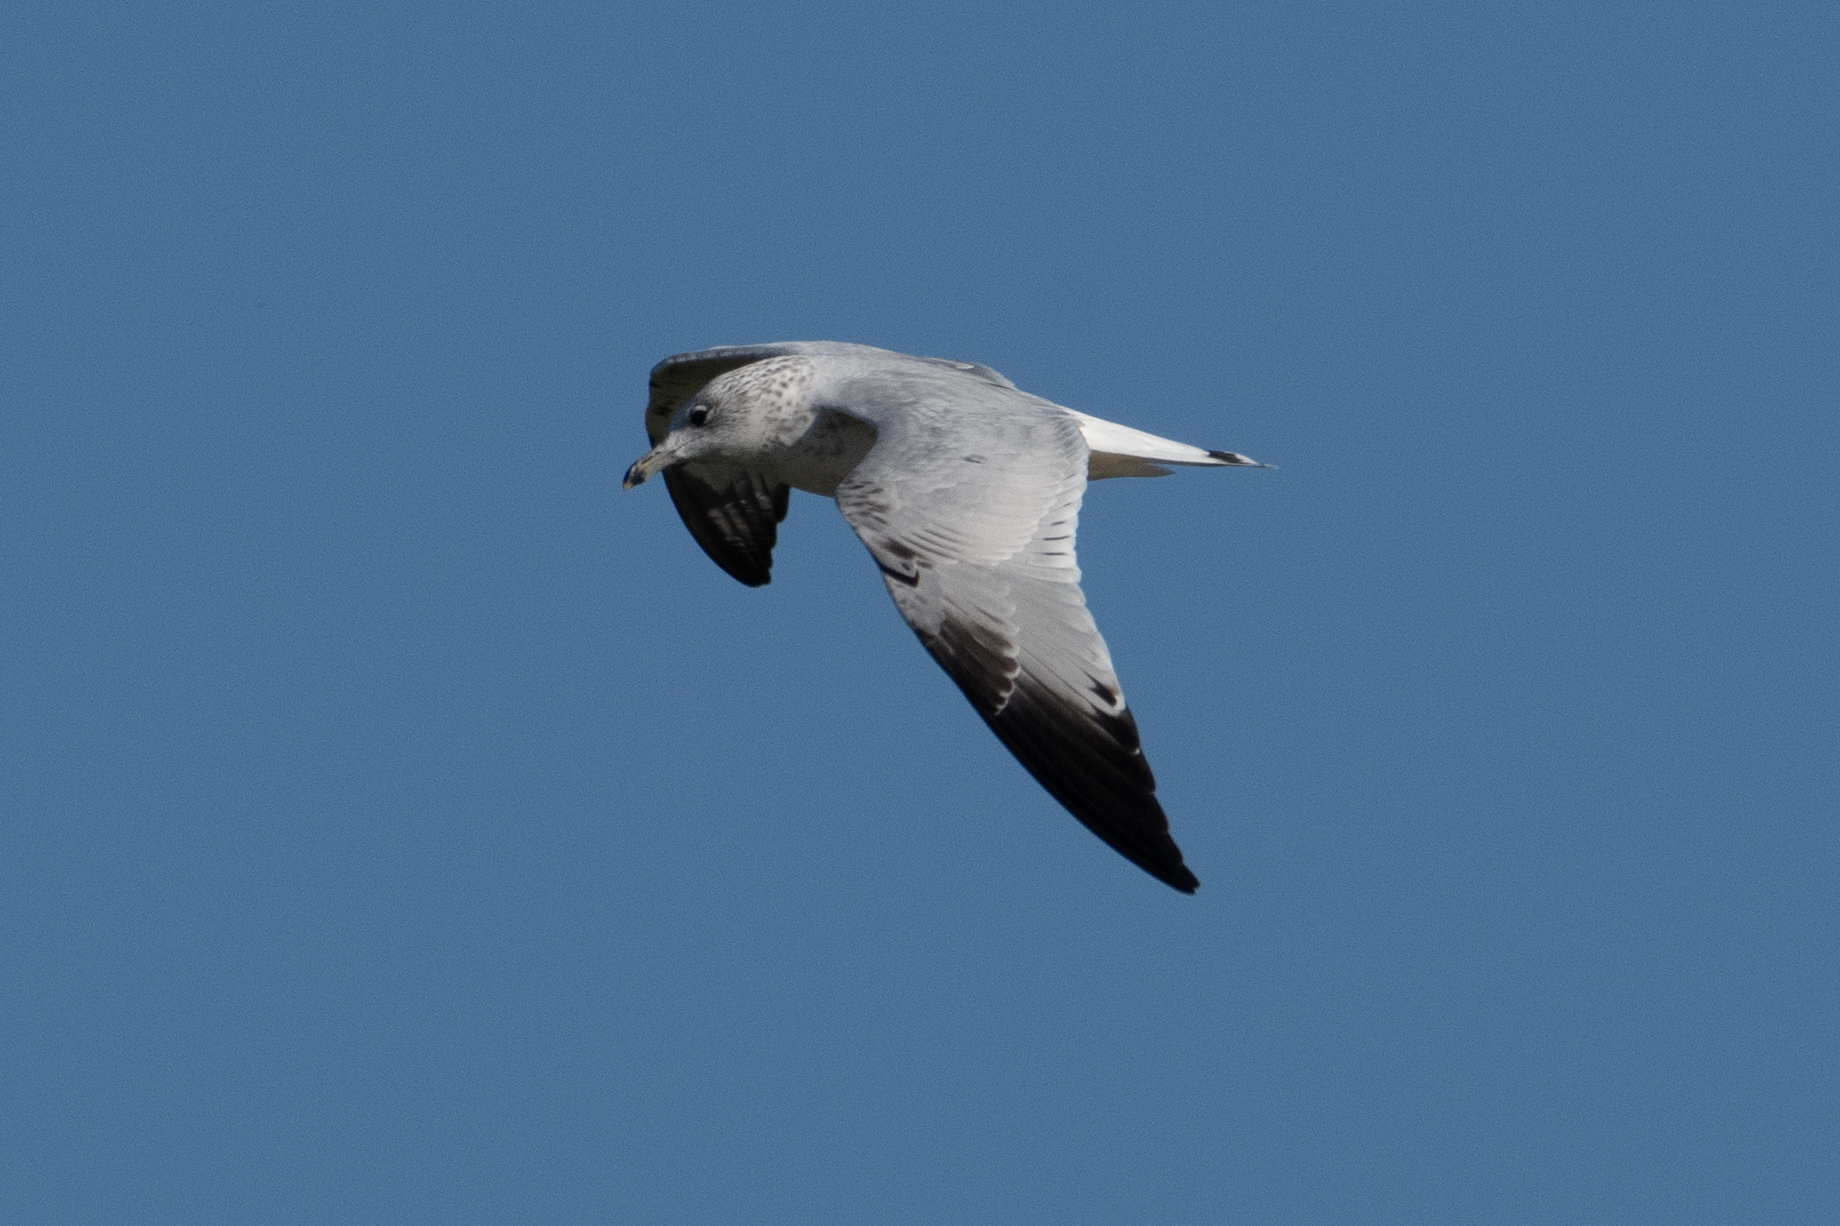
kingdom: Animalia
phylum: Chordata
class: Aves
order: Charadriiformes
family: Laridae
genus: Larus
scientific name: Larus delawarensis
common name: Ring-billed gull
